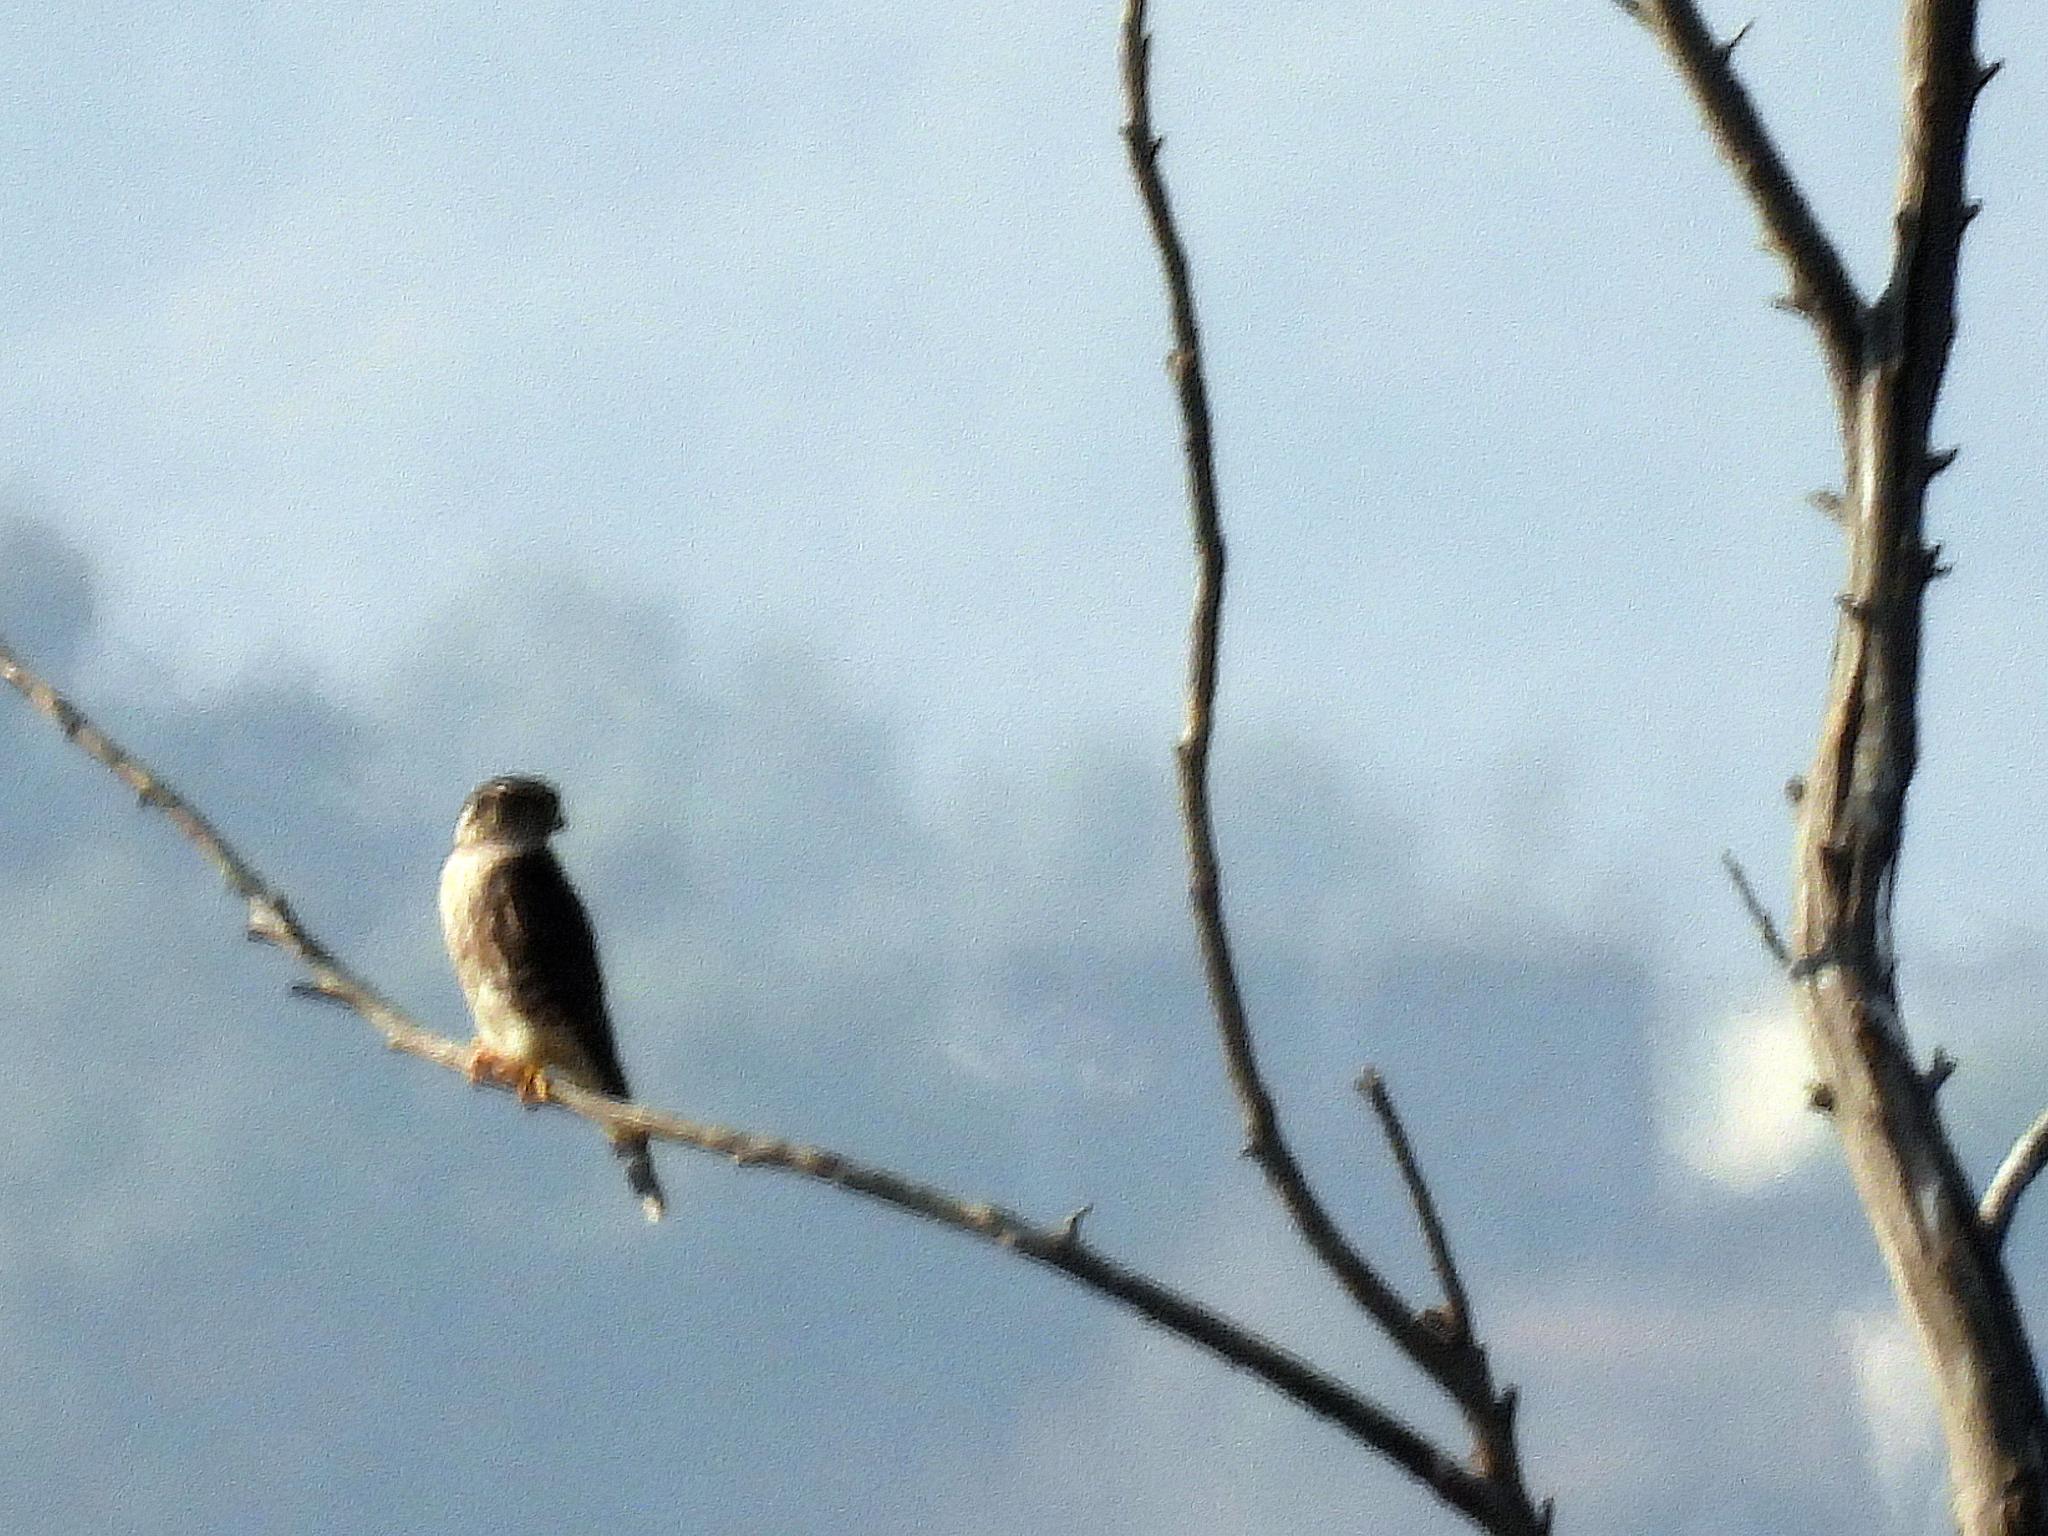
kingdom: Animalia
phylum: Chordata
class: Aves
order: Falconiformes
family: Falconidae
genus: Falco
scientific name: Falco columbarius
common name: Merlin
